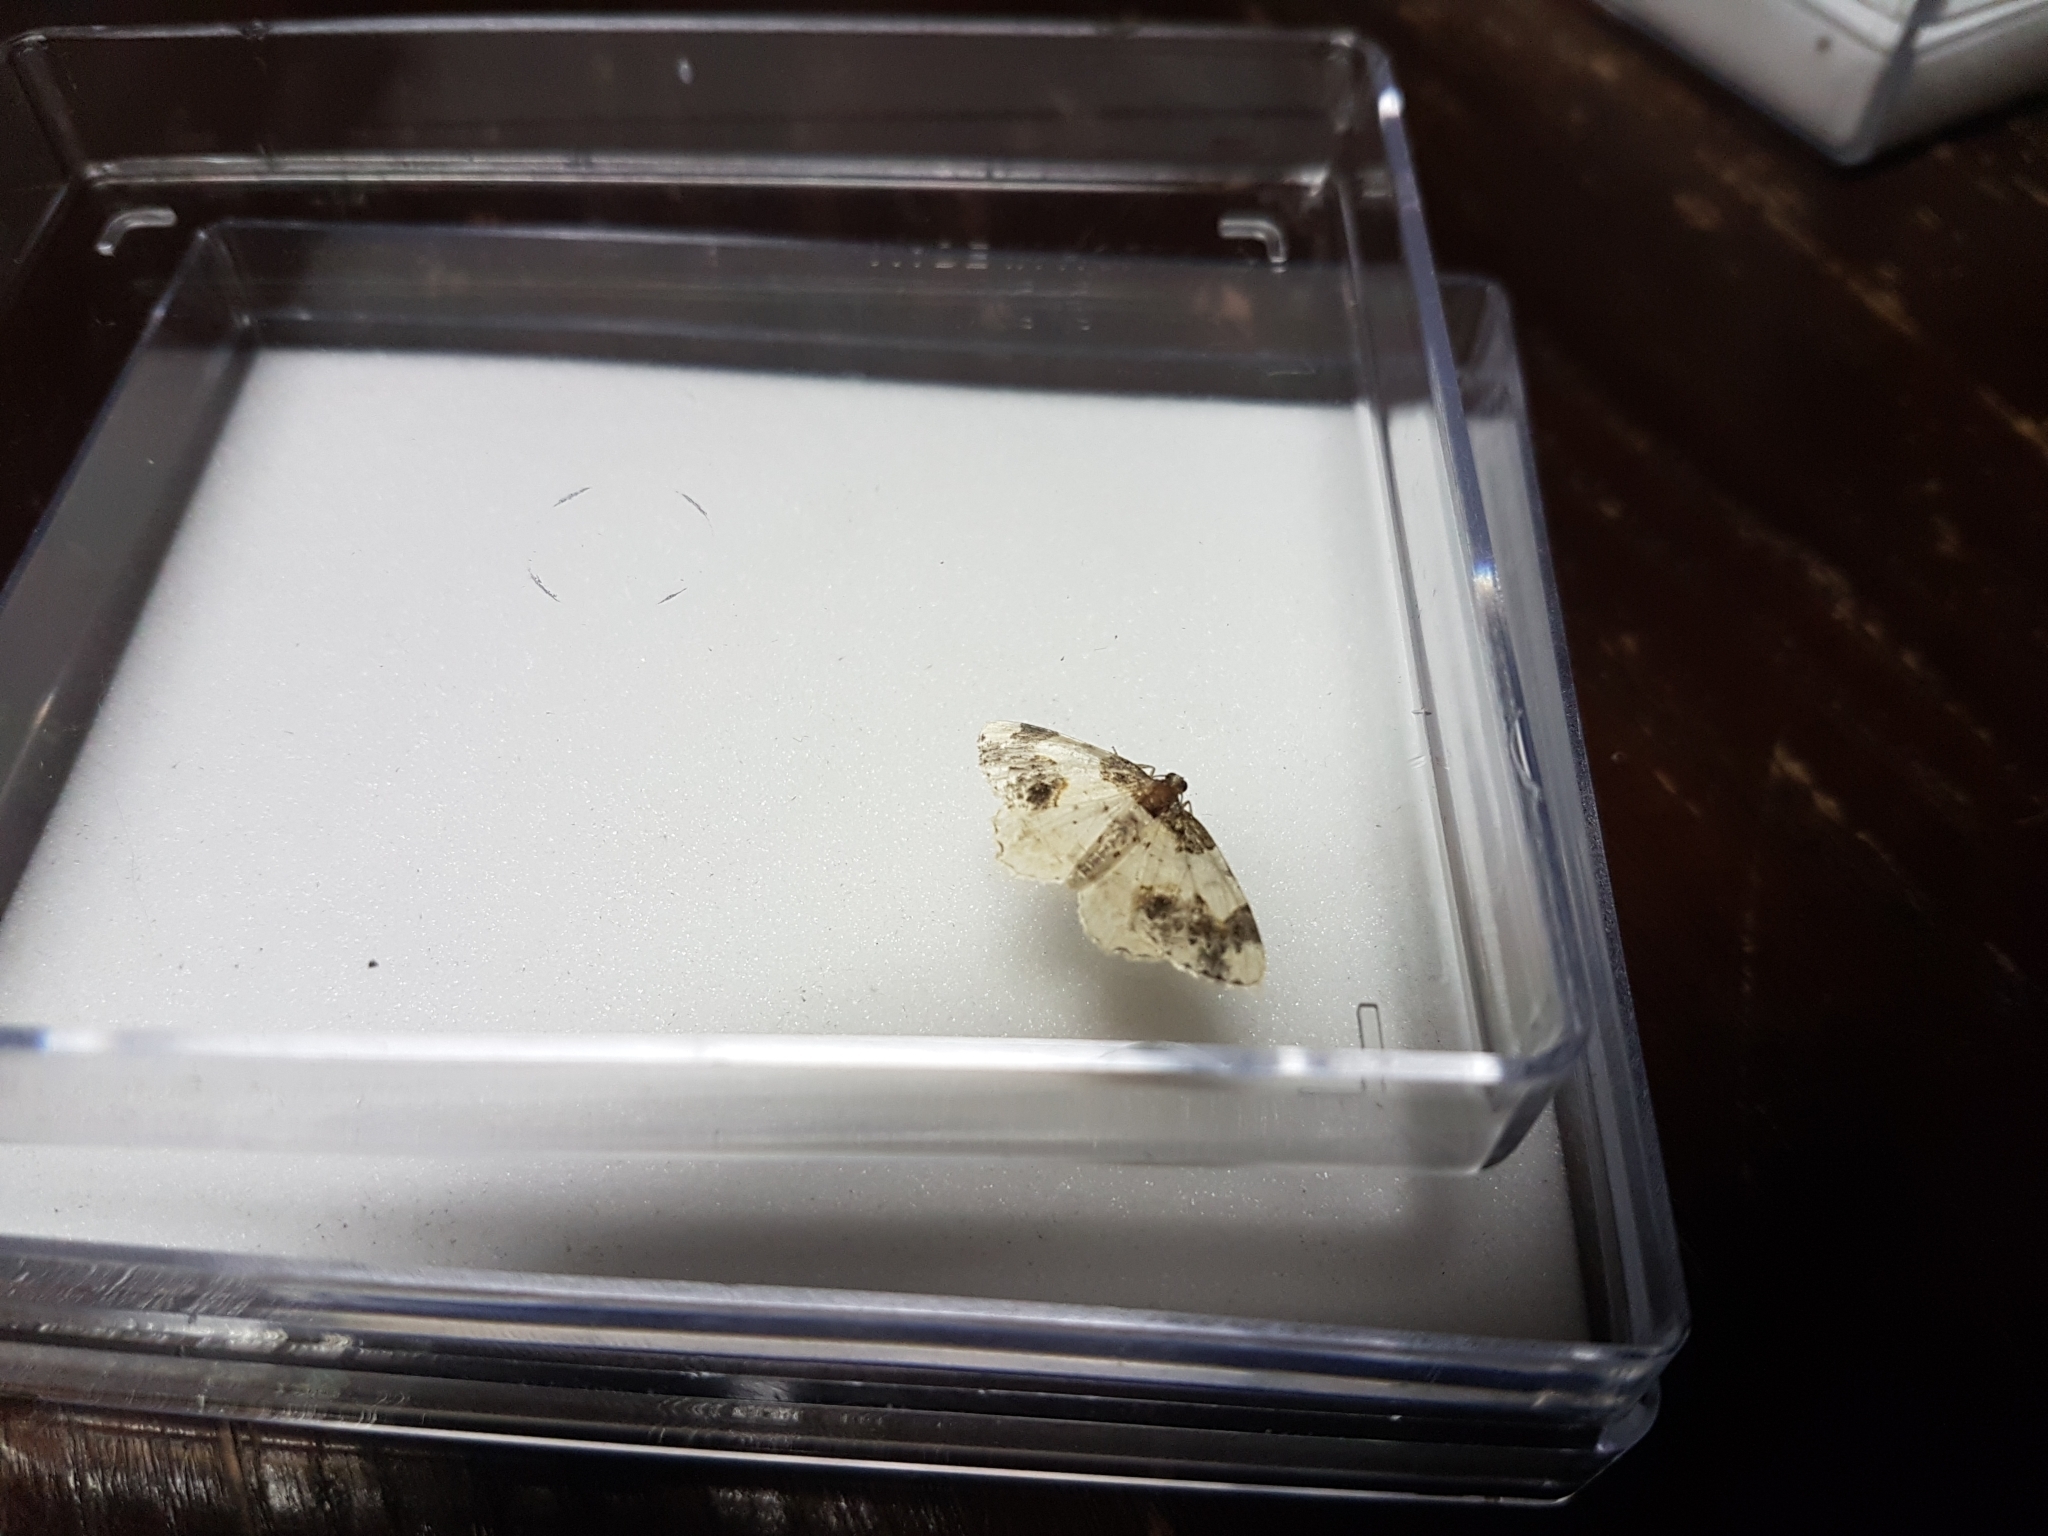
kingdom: Animalia
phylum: Arthropoda
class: Insecta
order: Lepidoptera
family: Geometridae
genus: Ligdia
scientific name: Ligdia adustata
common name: Scorched carpet
